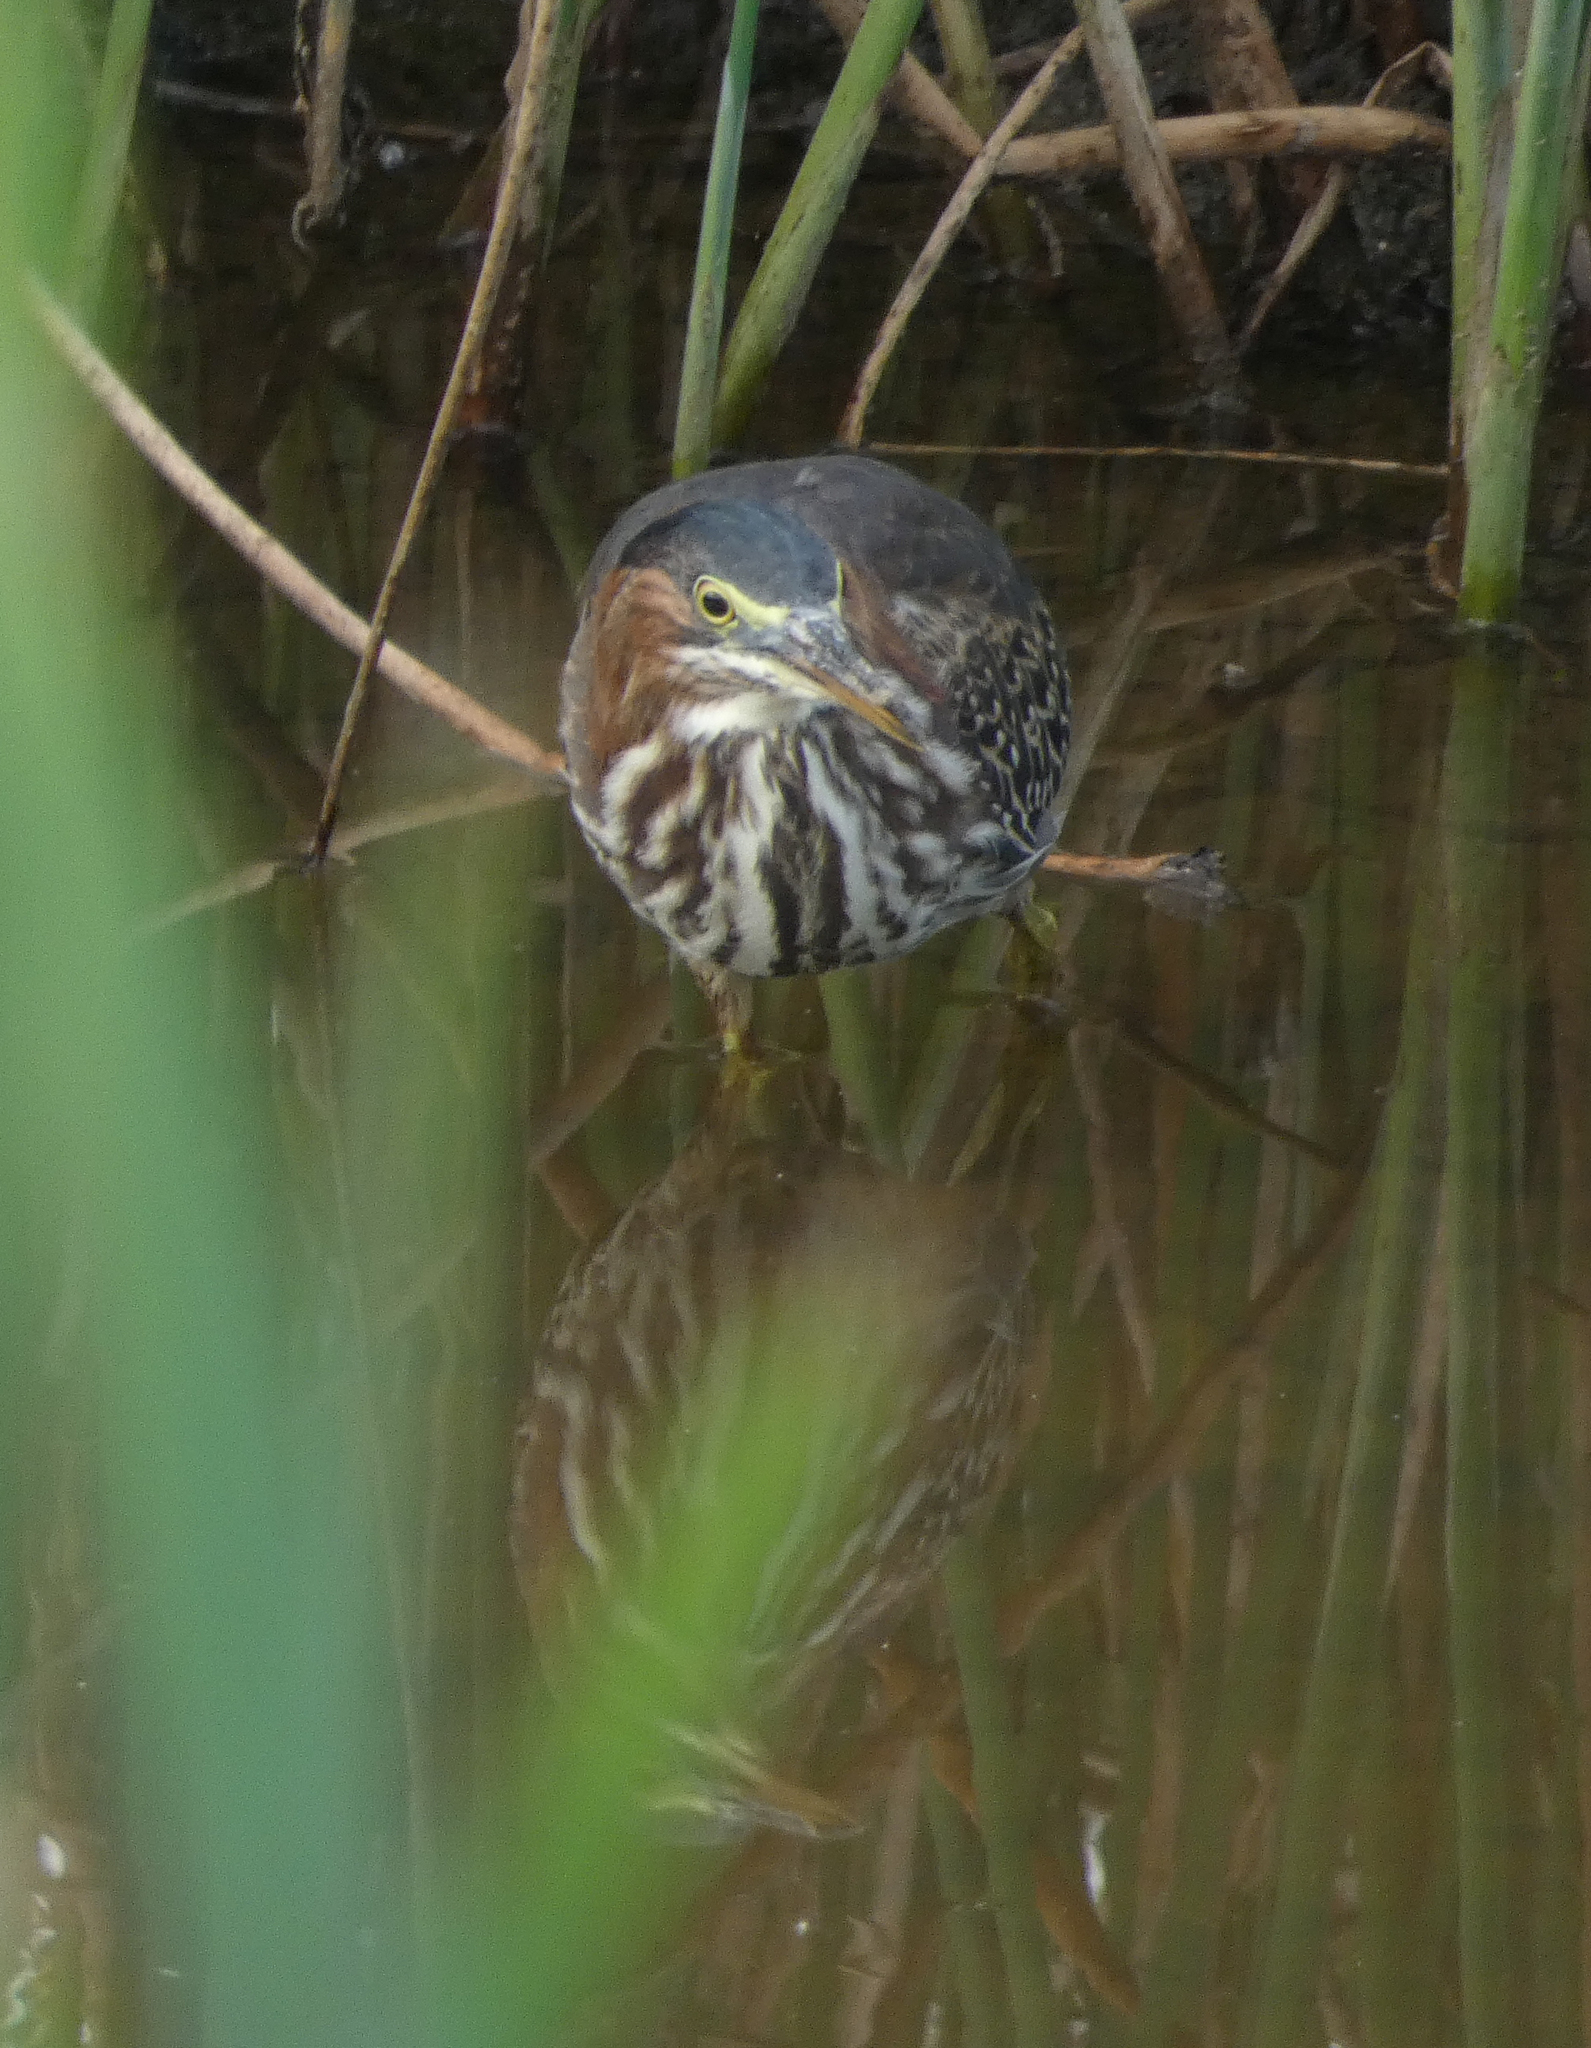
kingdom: Animalia
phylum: Chordata
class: Aves
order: Pelecaniformes
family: Ardeidae
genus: Butorides
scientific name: Butorides virescens
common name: Green heron
